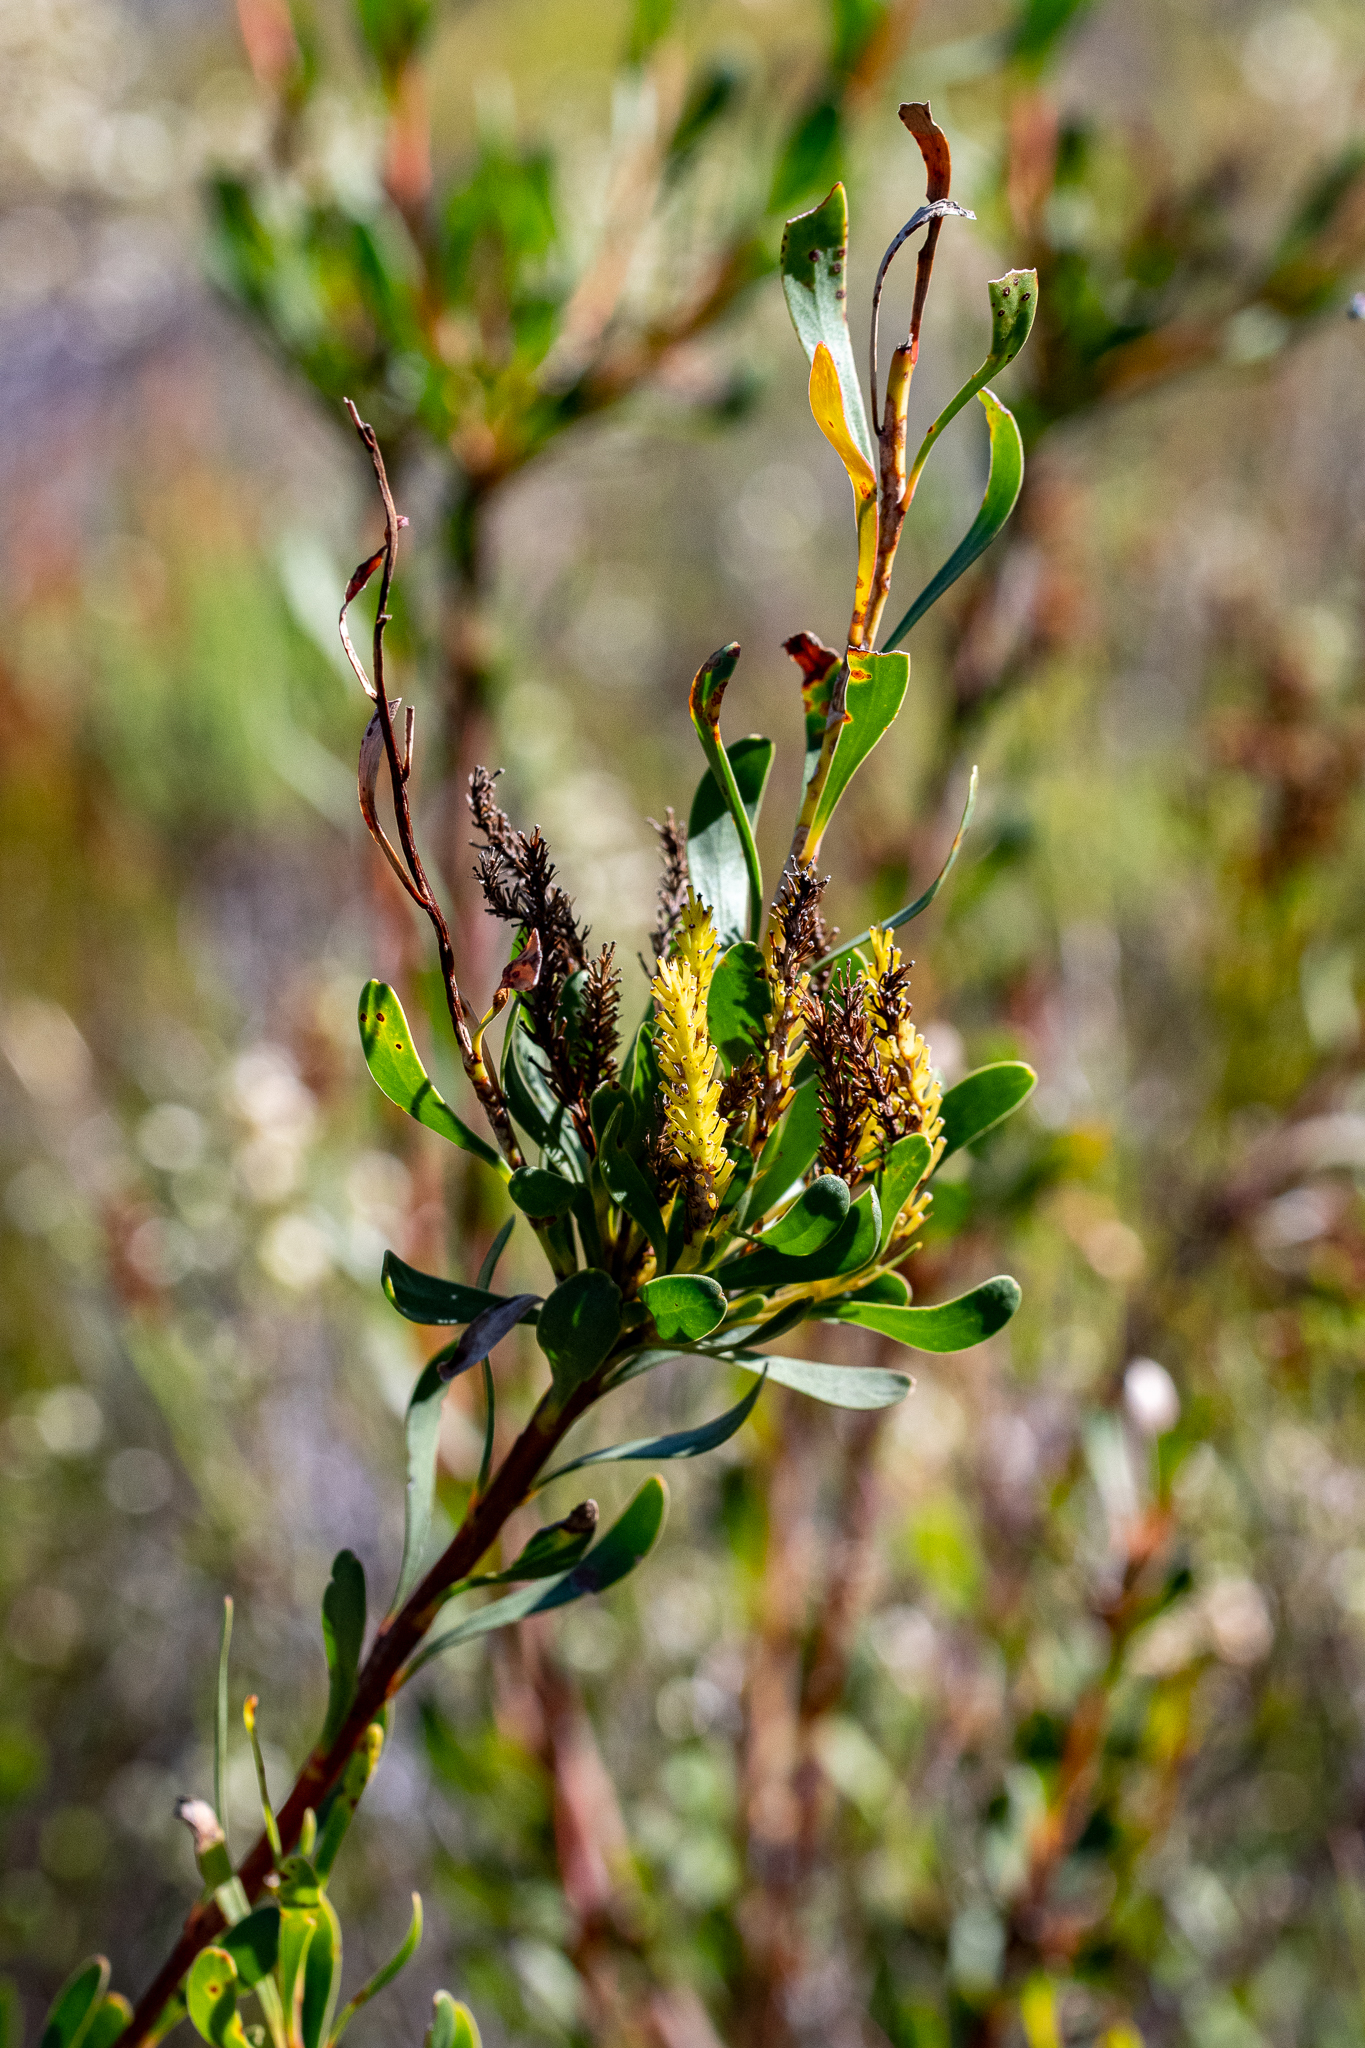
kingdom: Plantae
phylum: Tracheophyta
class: Magnoliopsida
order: Proteales
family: Proteaceae
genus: Aulax
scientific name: Aulax umbellata
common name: Broad-leaf featherbush
